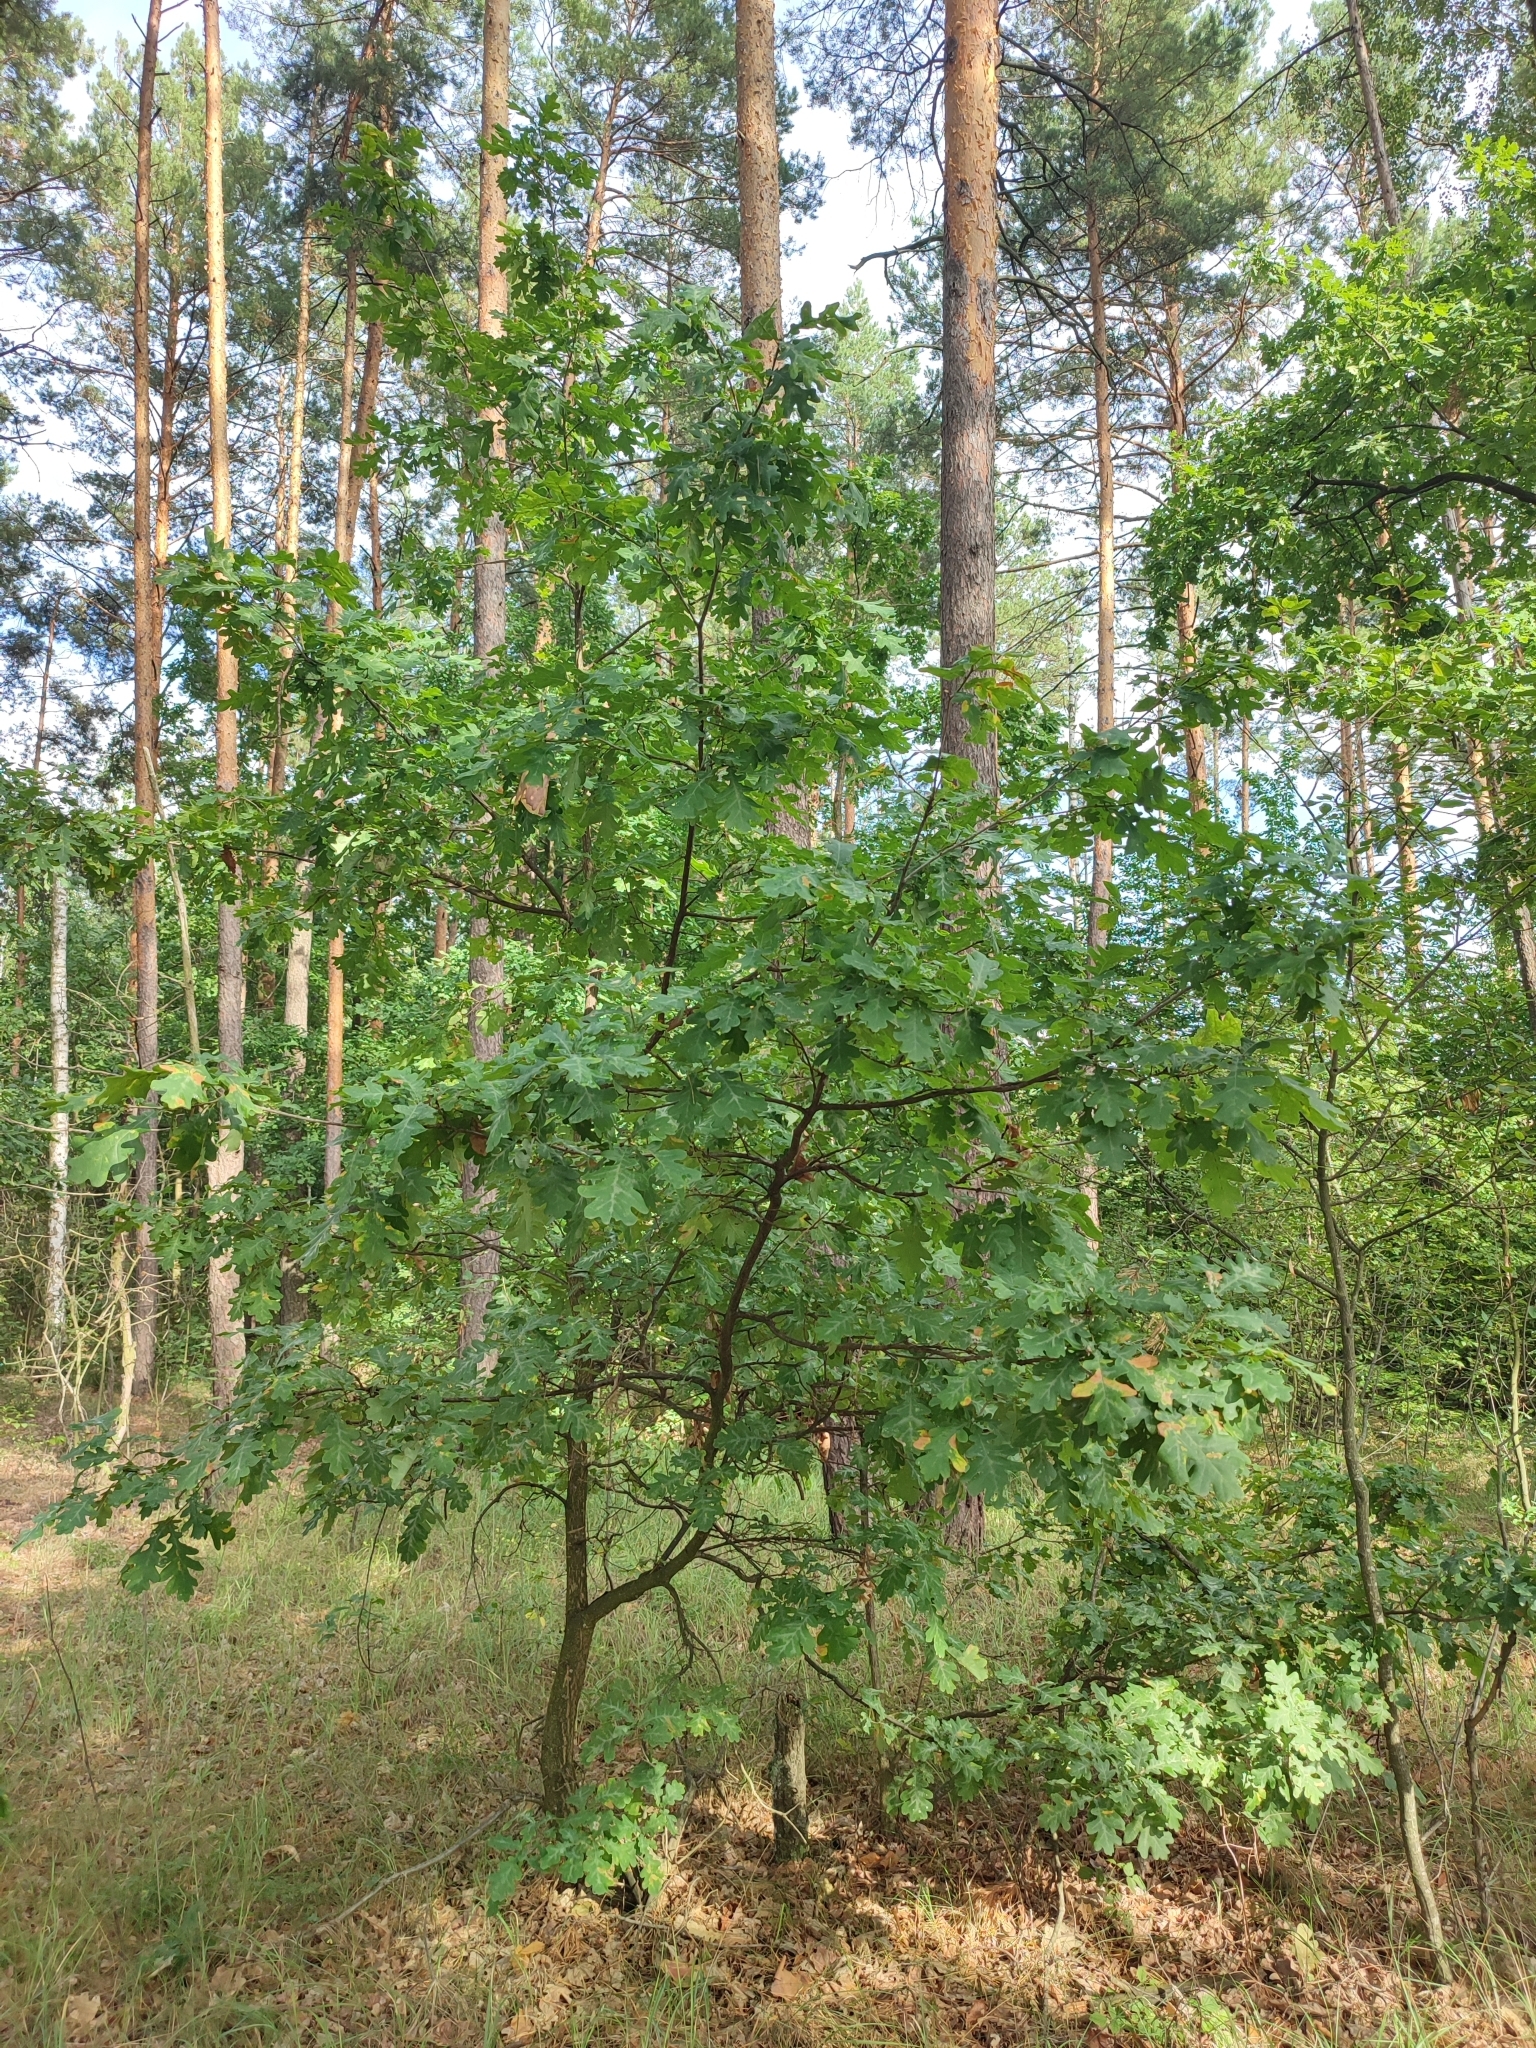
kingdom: Plantae
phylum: Tracheophyta
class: Magnoliopsida
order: Fagales
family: Fagaceae
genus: Quercus
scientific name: Quercus robur
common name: Pedunculate oak
